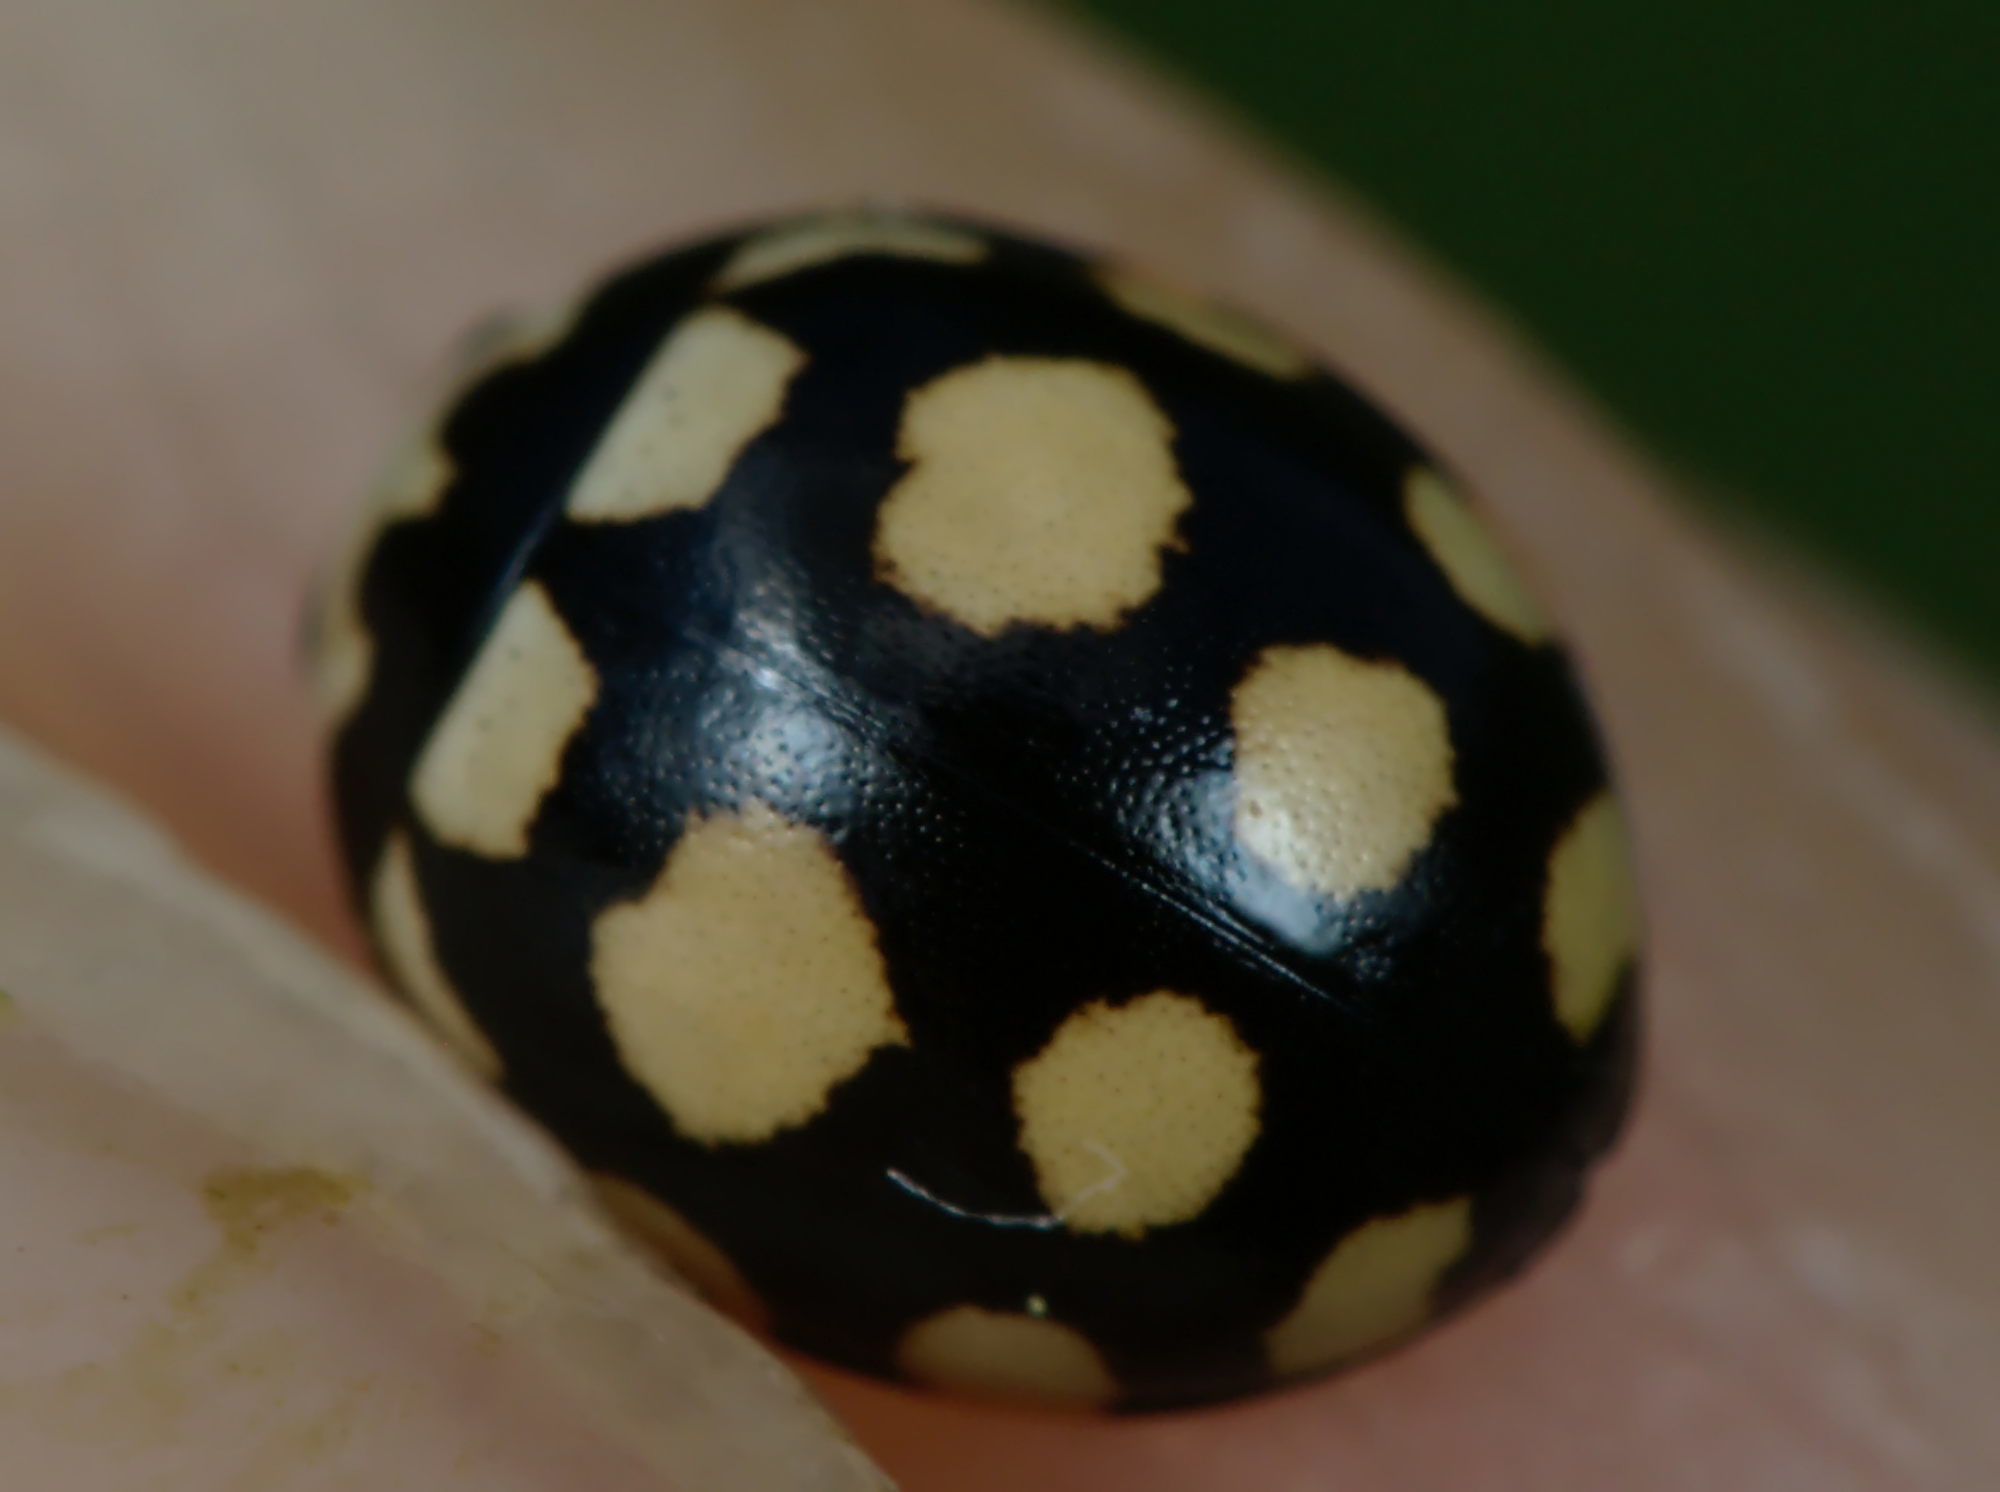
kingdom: Animalia
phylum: Arthropoda
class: Insecta
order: Coleoptera
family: Coccinellidae
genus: Coccinula
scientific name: Coccinula quatuordecimpustulata
